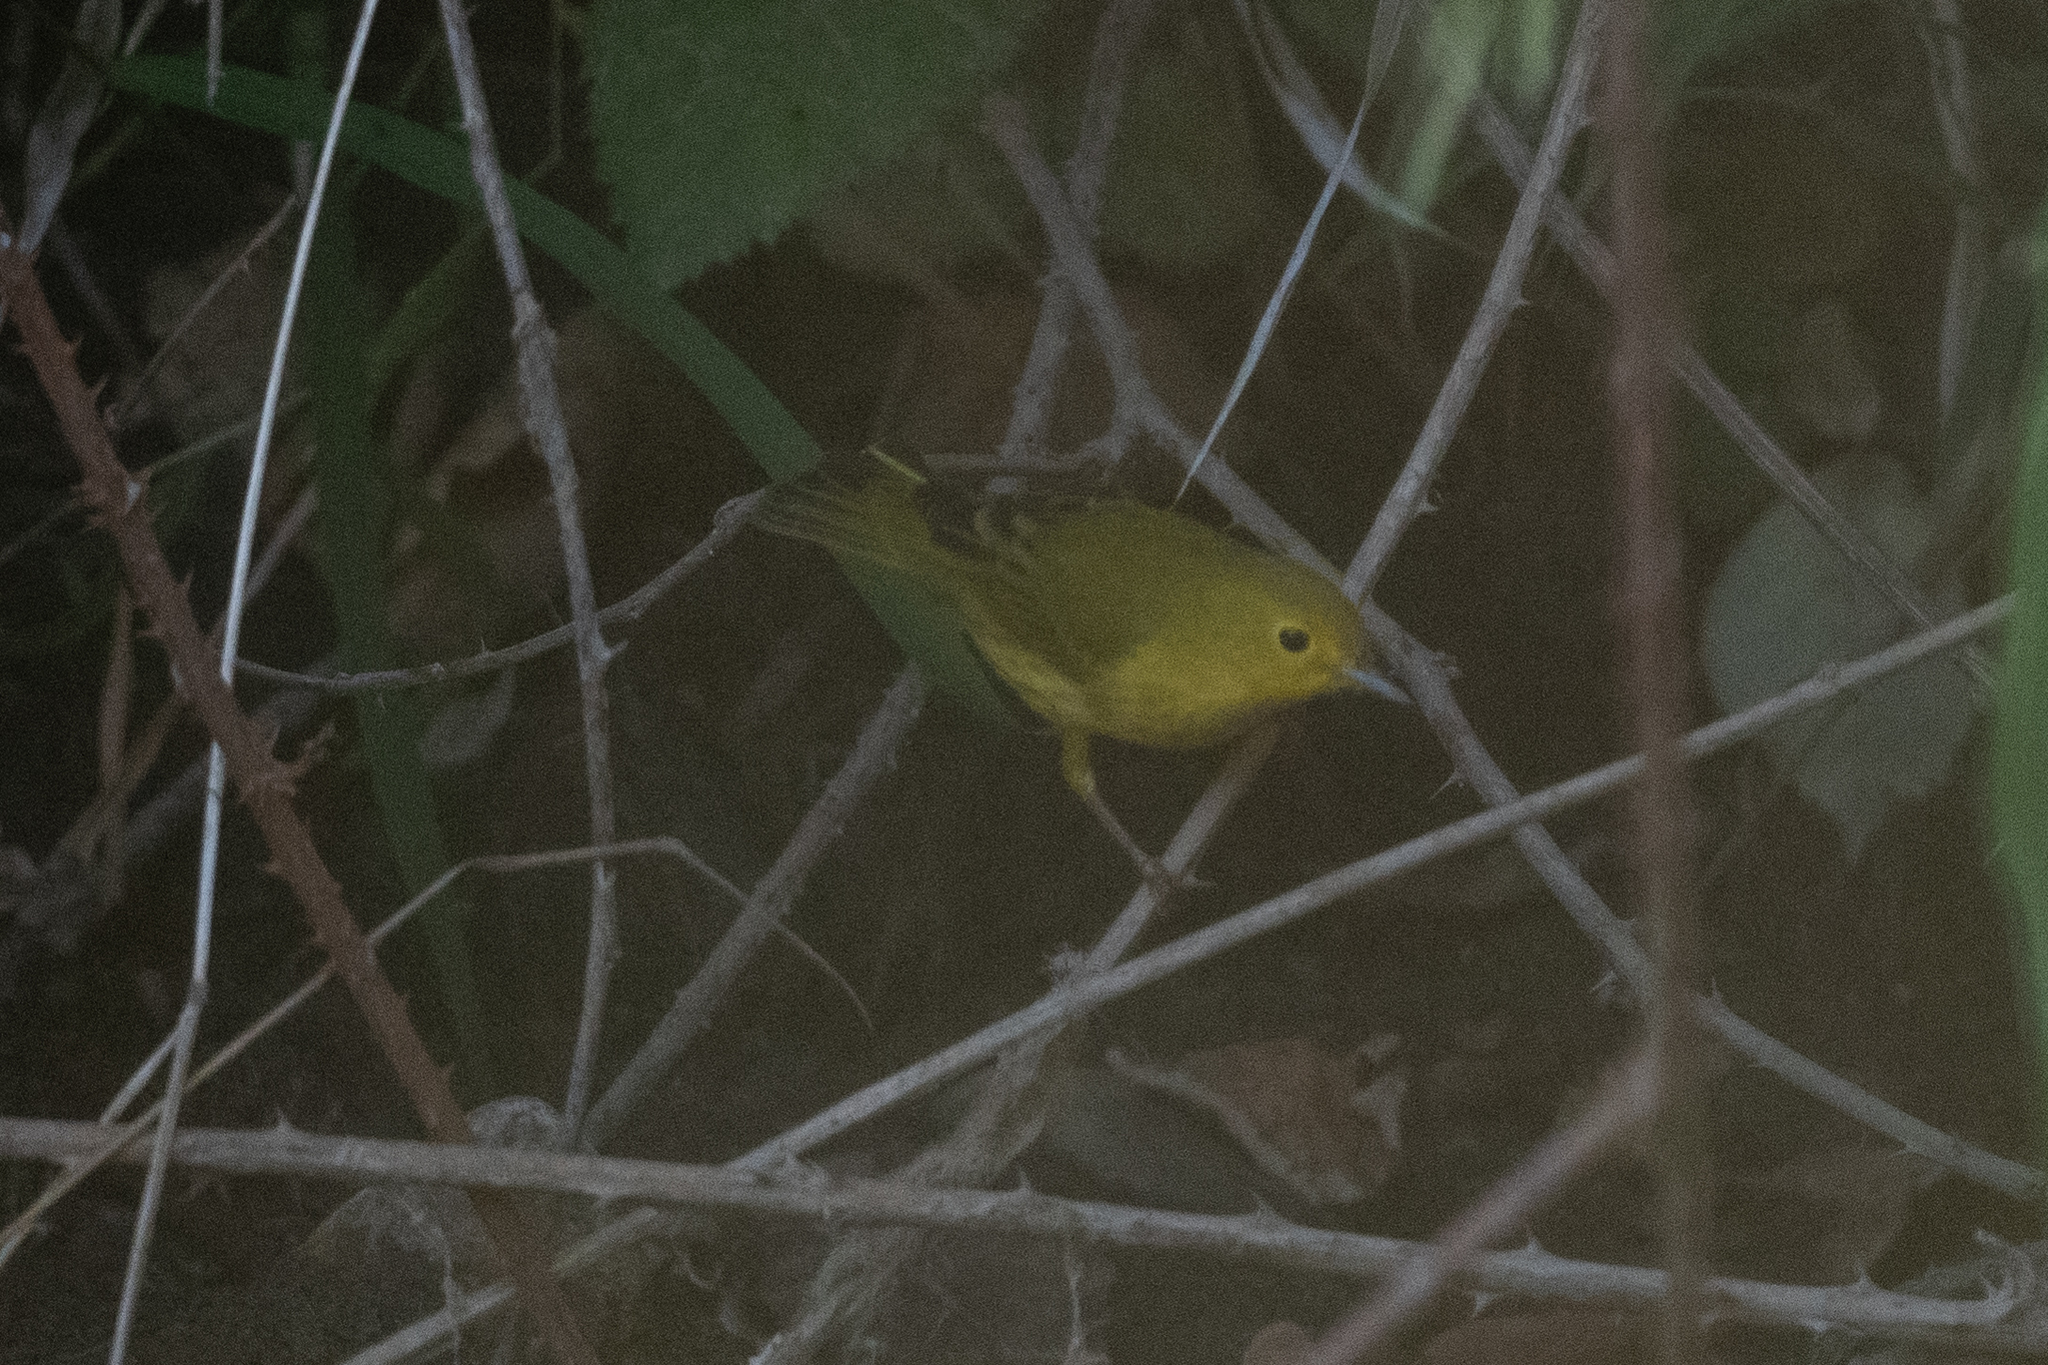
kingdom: Animalia
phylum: Chordata
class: Aves
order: Passeriformes
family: Parulidae
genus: Setophaga
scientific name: Setophaga petechia
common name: Yellow warbler
